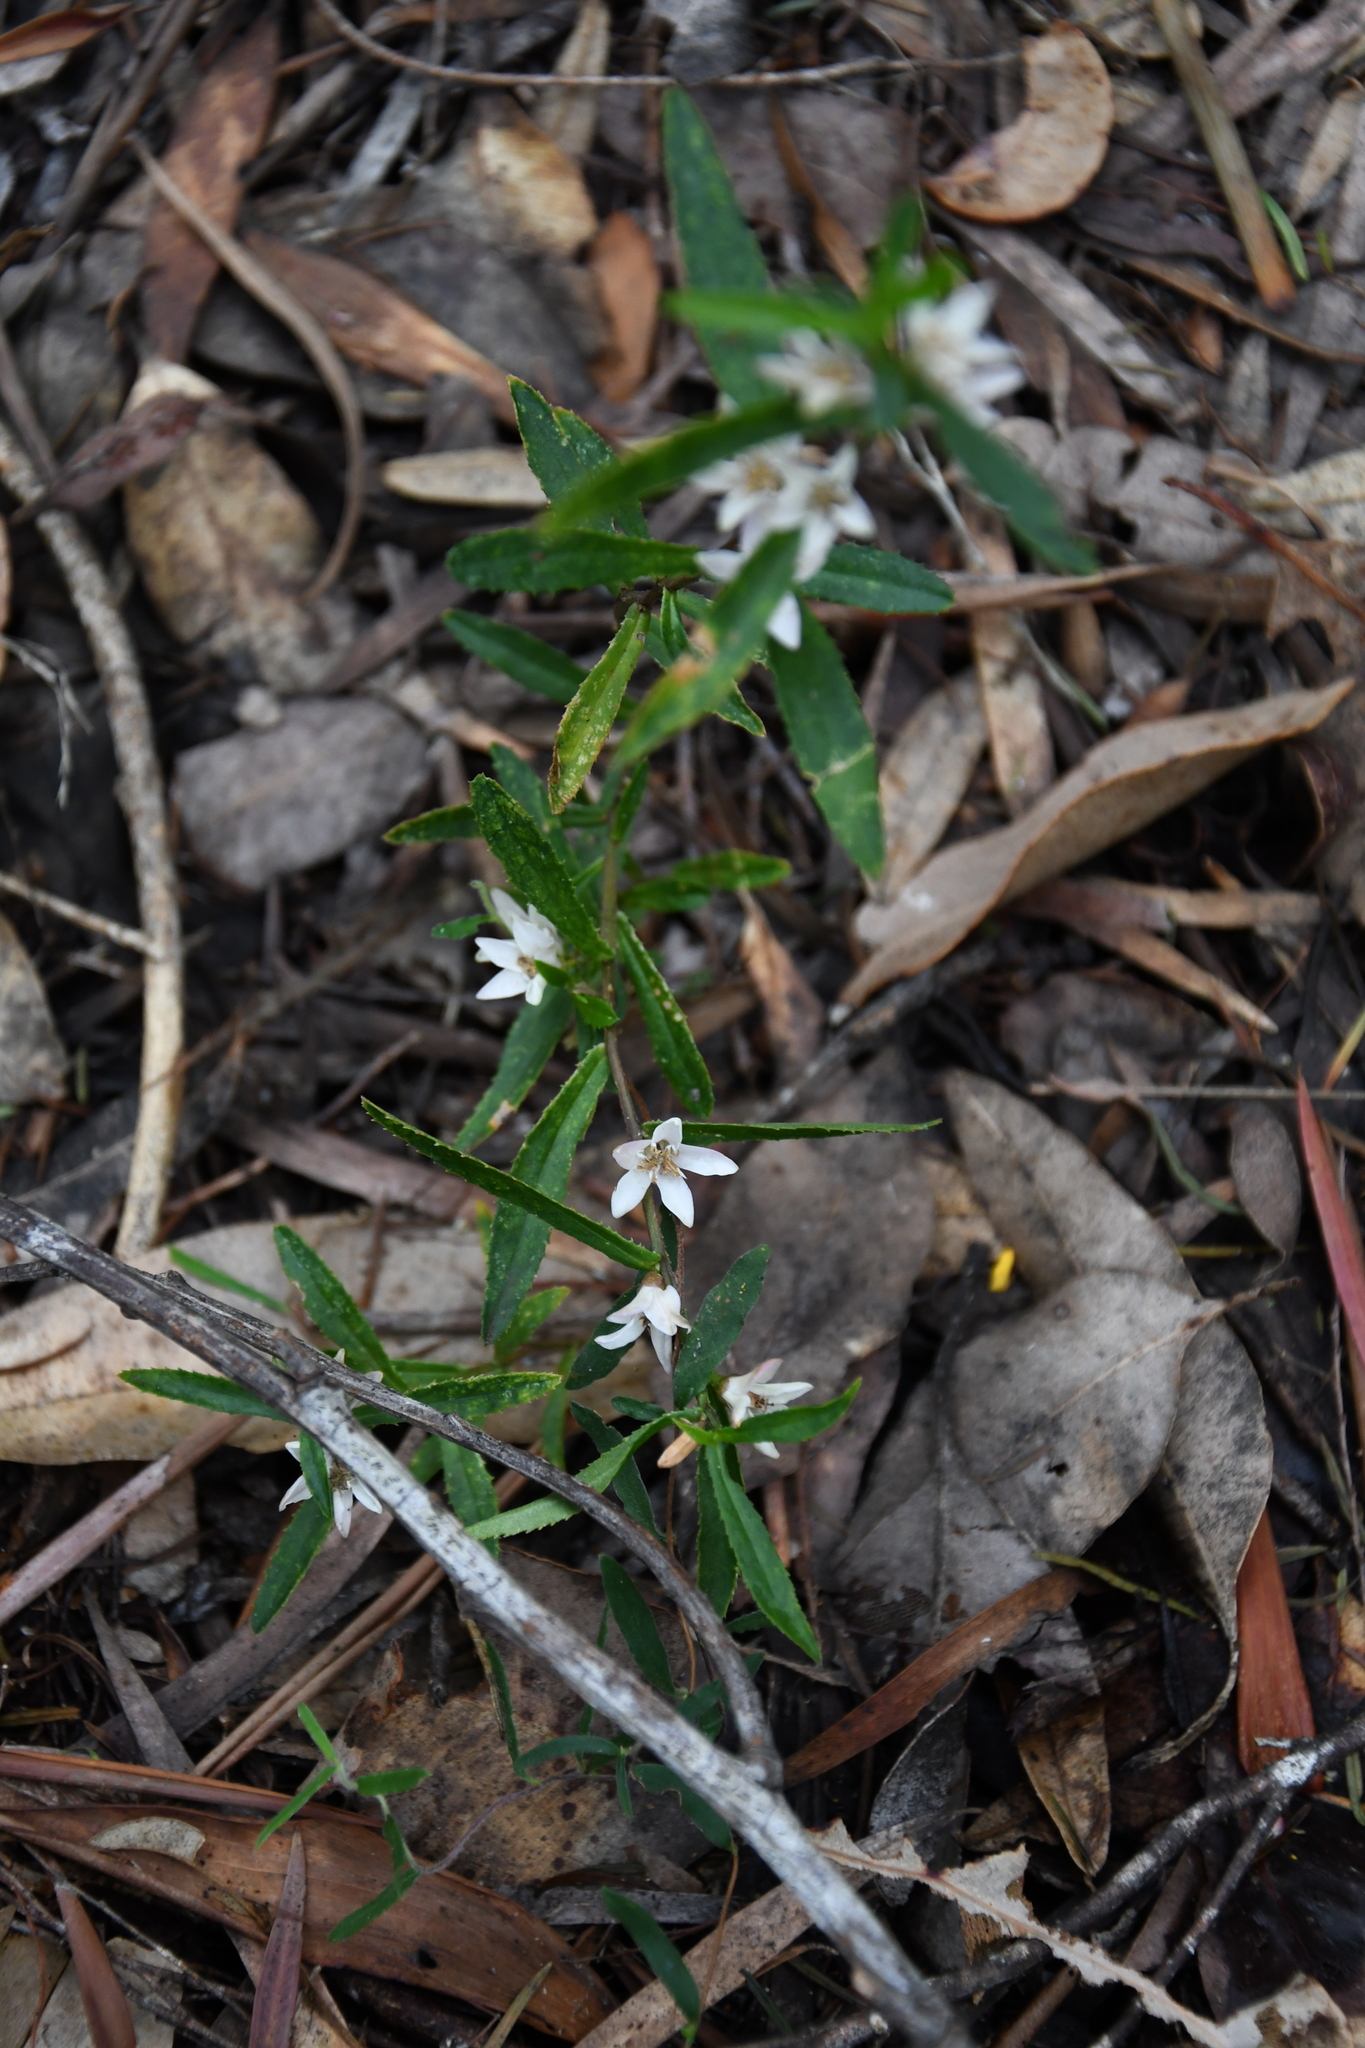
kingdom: Plantae
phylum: Tracheophyta
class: Magnoliopsida
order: Sapindales
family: Rutaceae
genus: Crowea
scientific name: Crowea angustifolia
